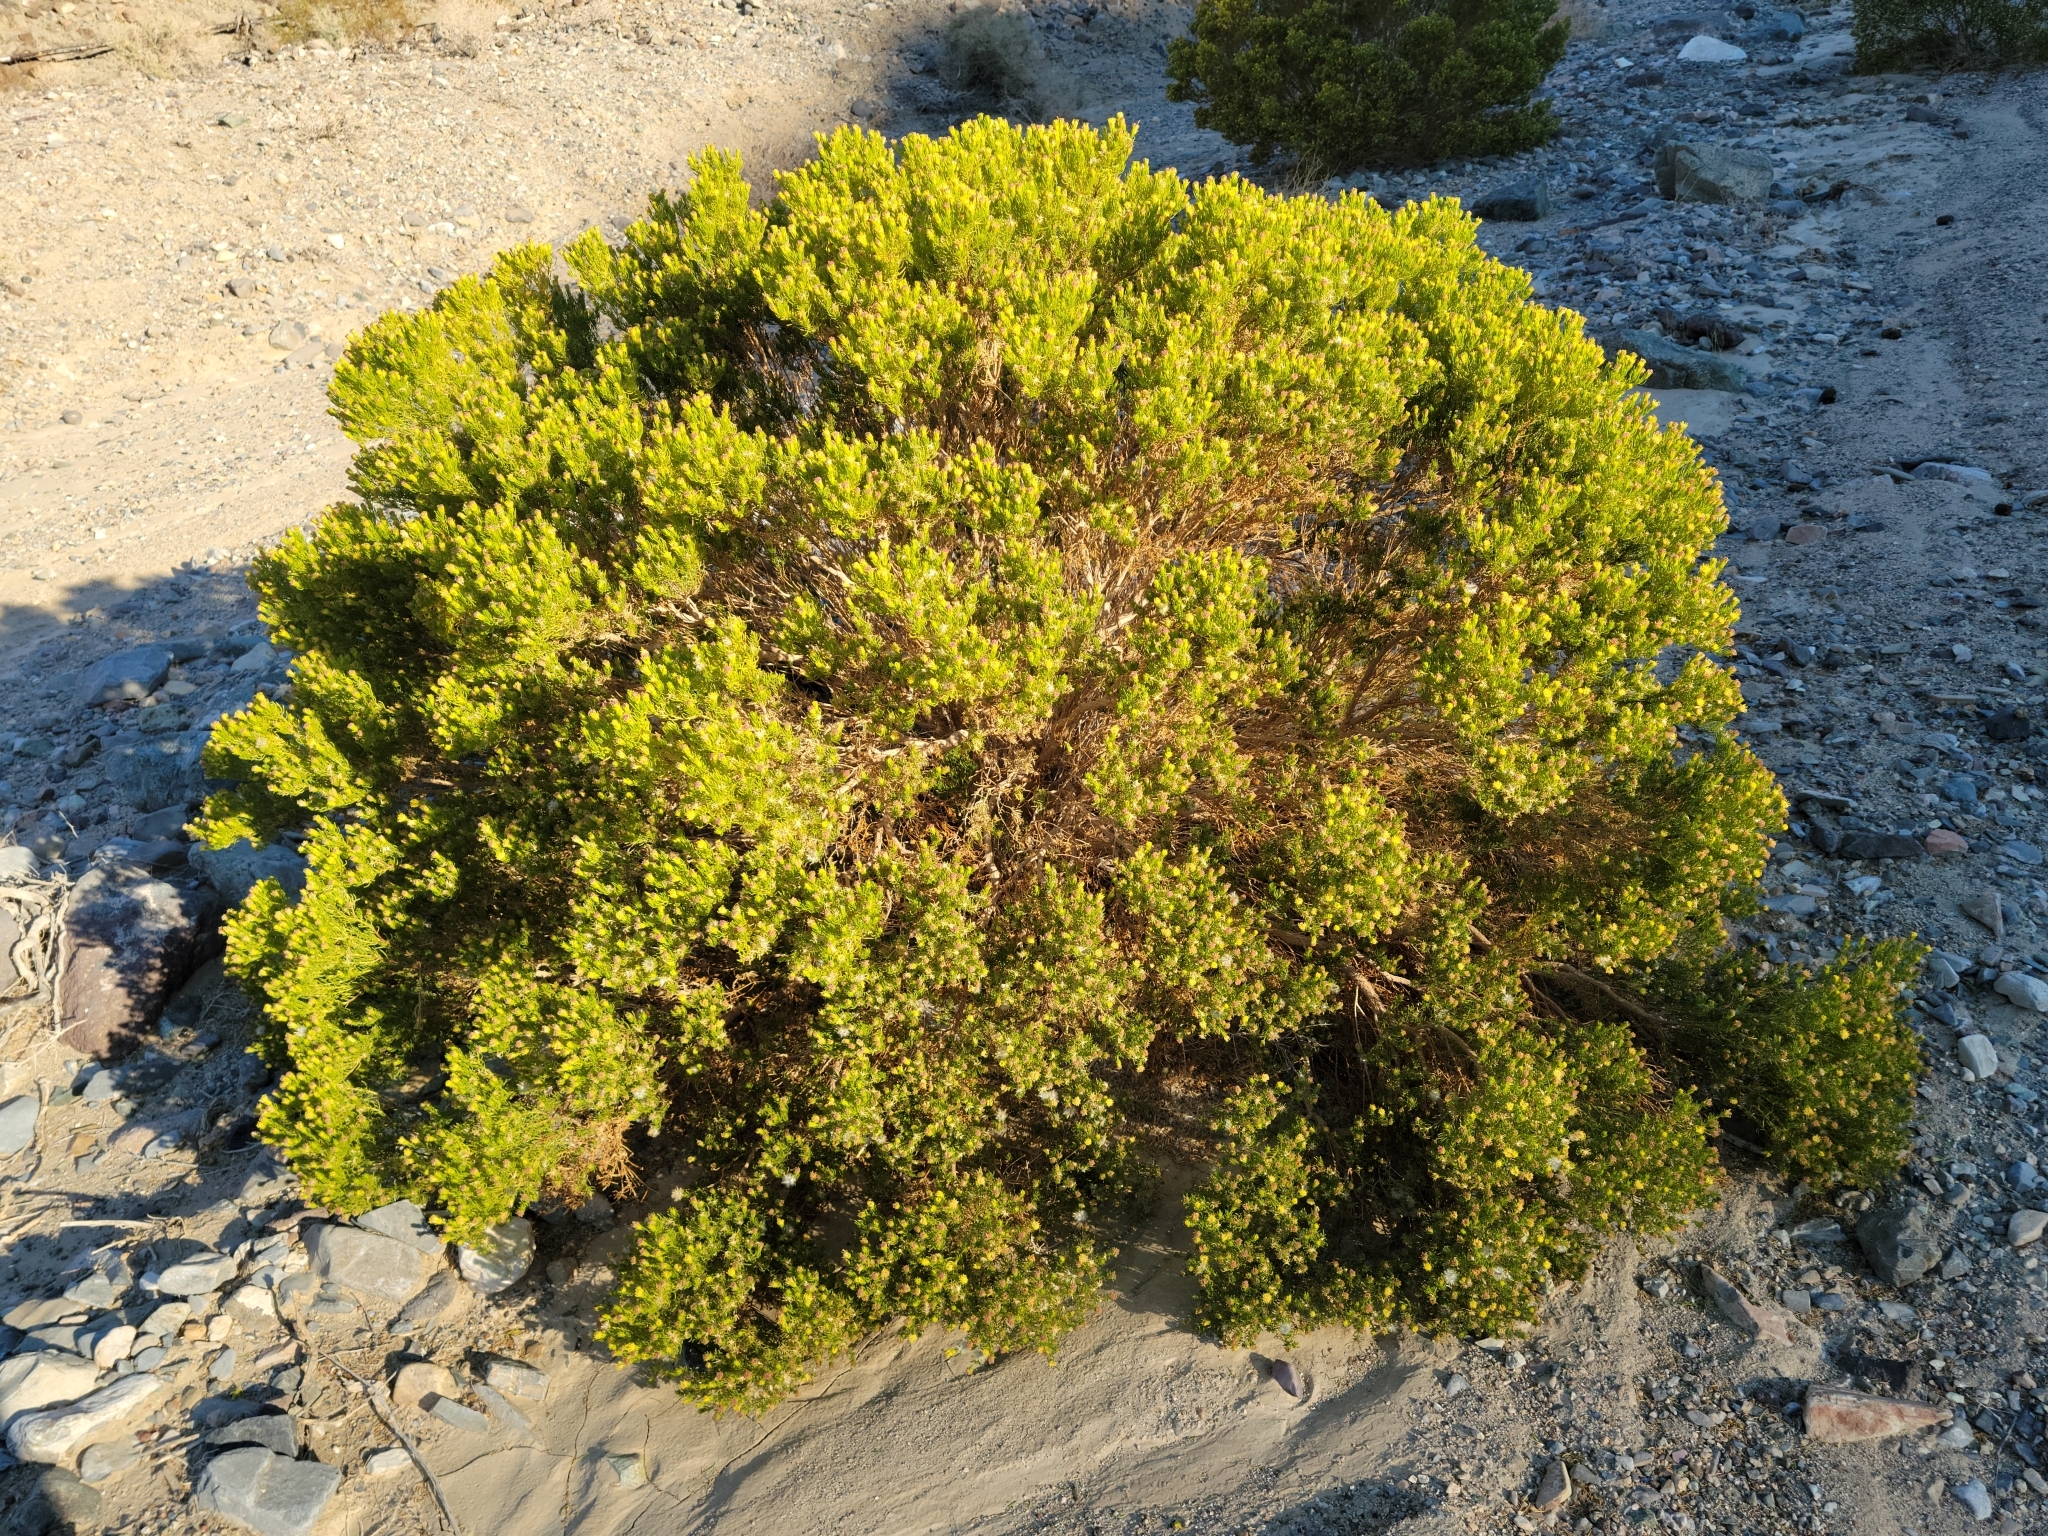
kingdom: Plantae
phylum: Tracheophyta
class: Magnoliopsida
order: Asterales
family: Asteraceae
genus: Peucephyllum
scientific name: Peucephyllum schottii
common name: Pygmy-cedar
